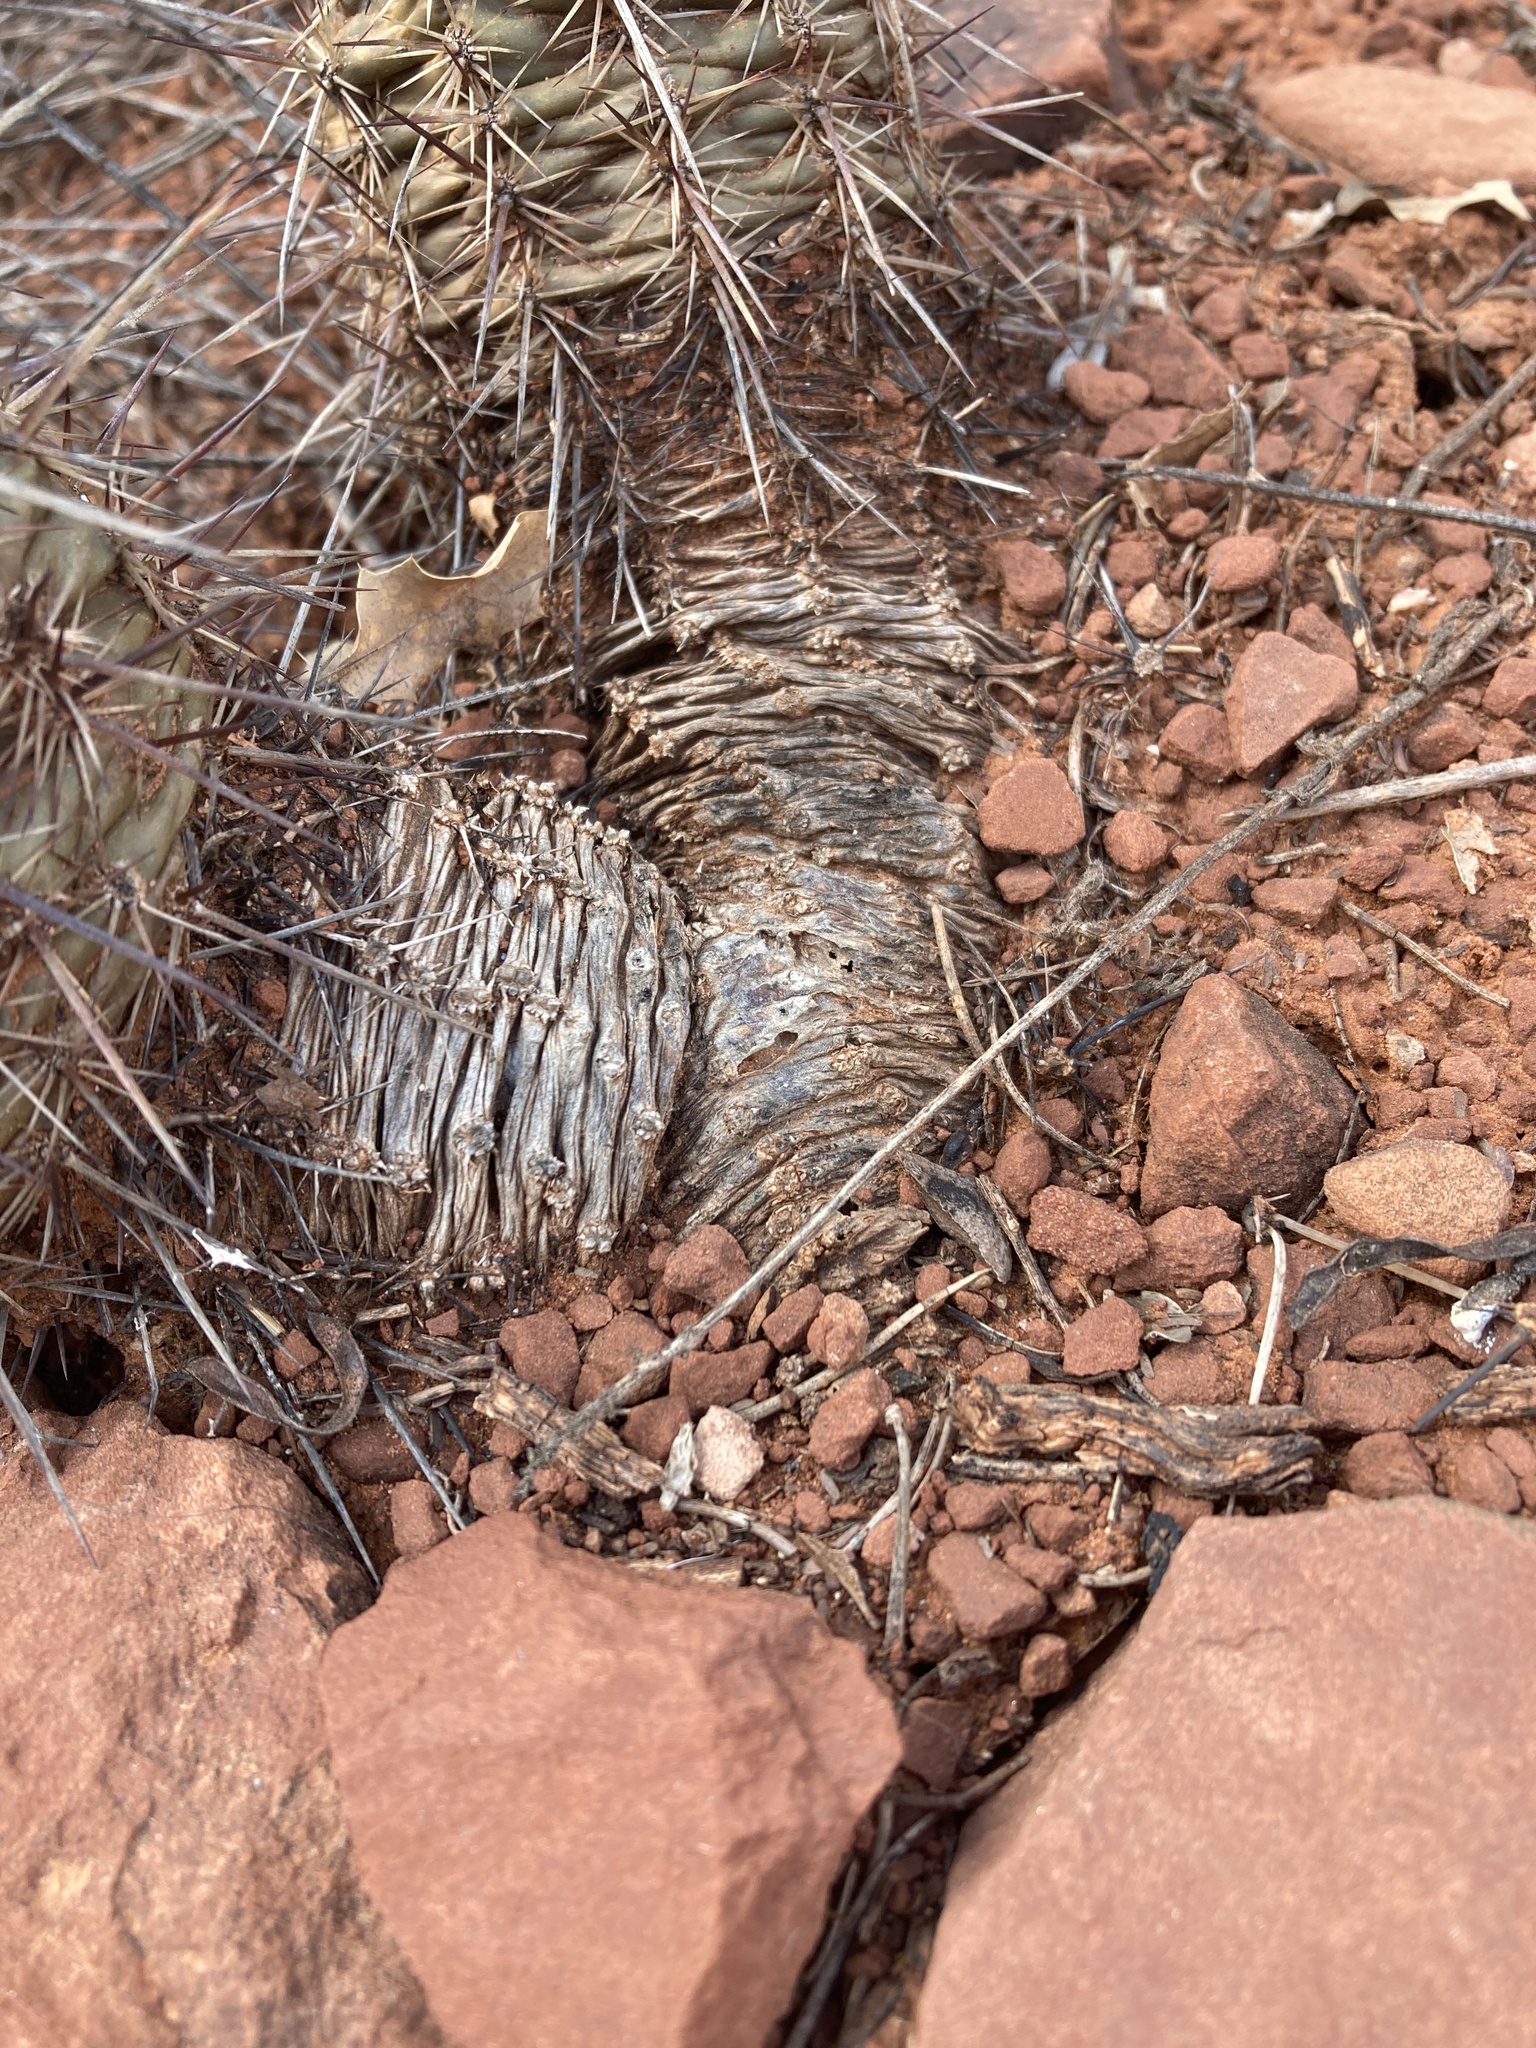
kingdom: Plantae
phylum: Tracheophyta
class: Magnoliopsida
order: Caryophyllales
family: Cactaceae
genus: Echinocereus
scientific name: Echinocereus fasciculatus
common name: Bundle hedgehog
